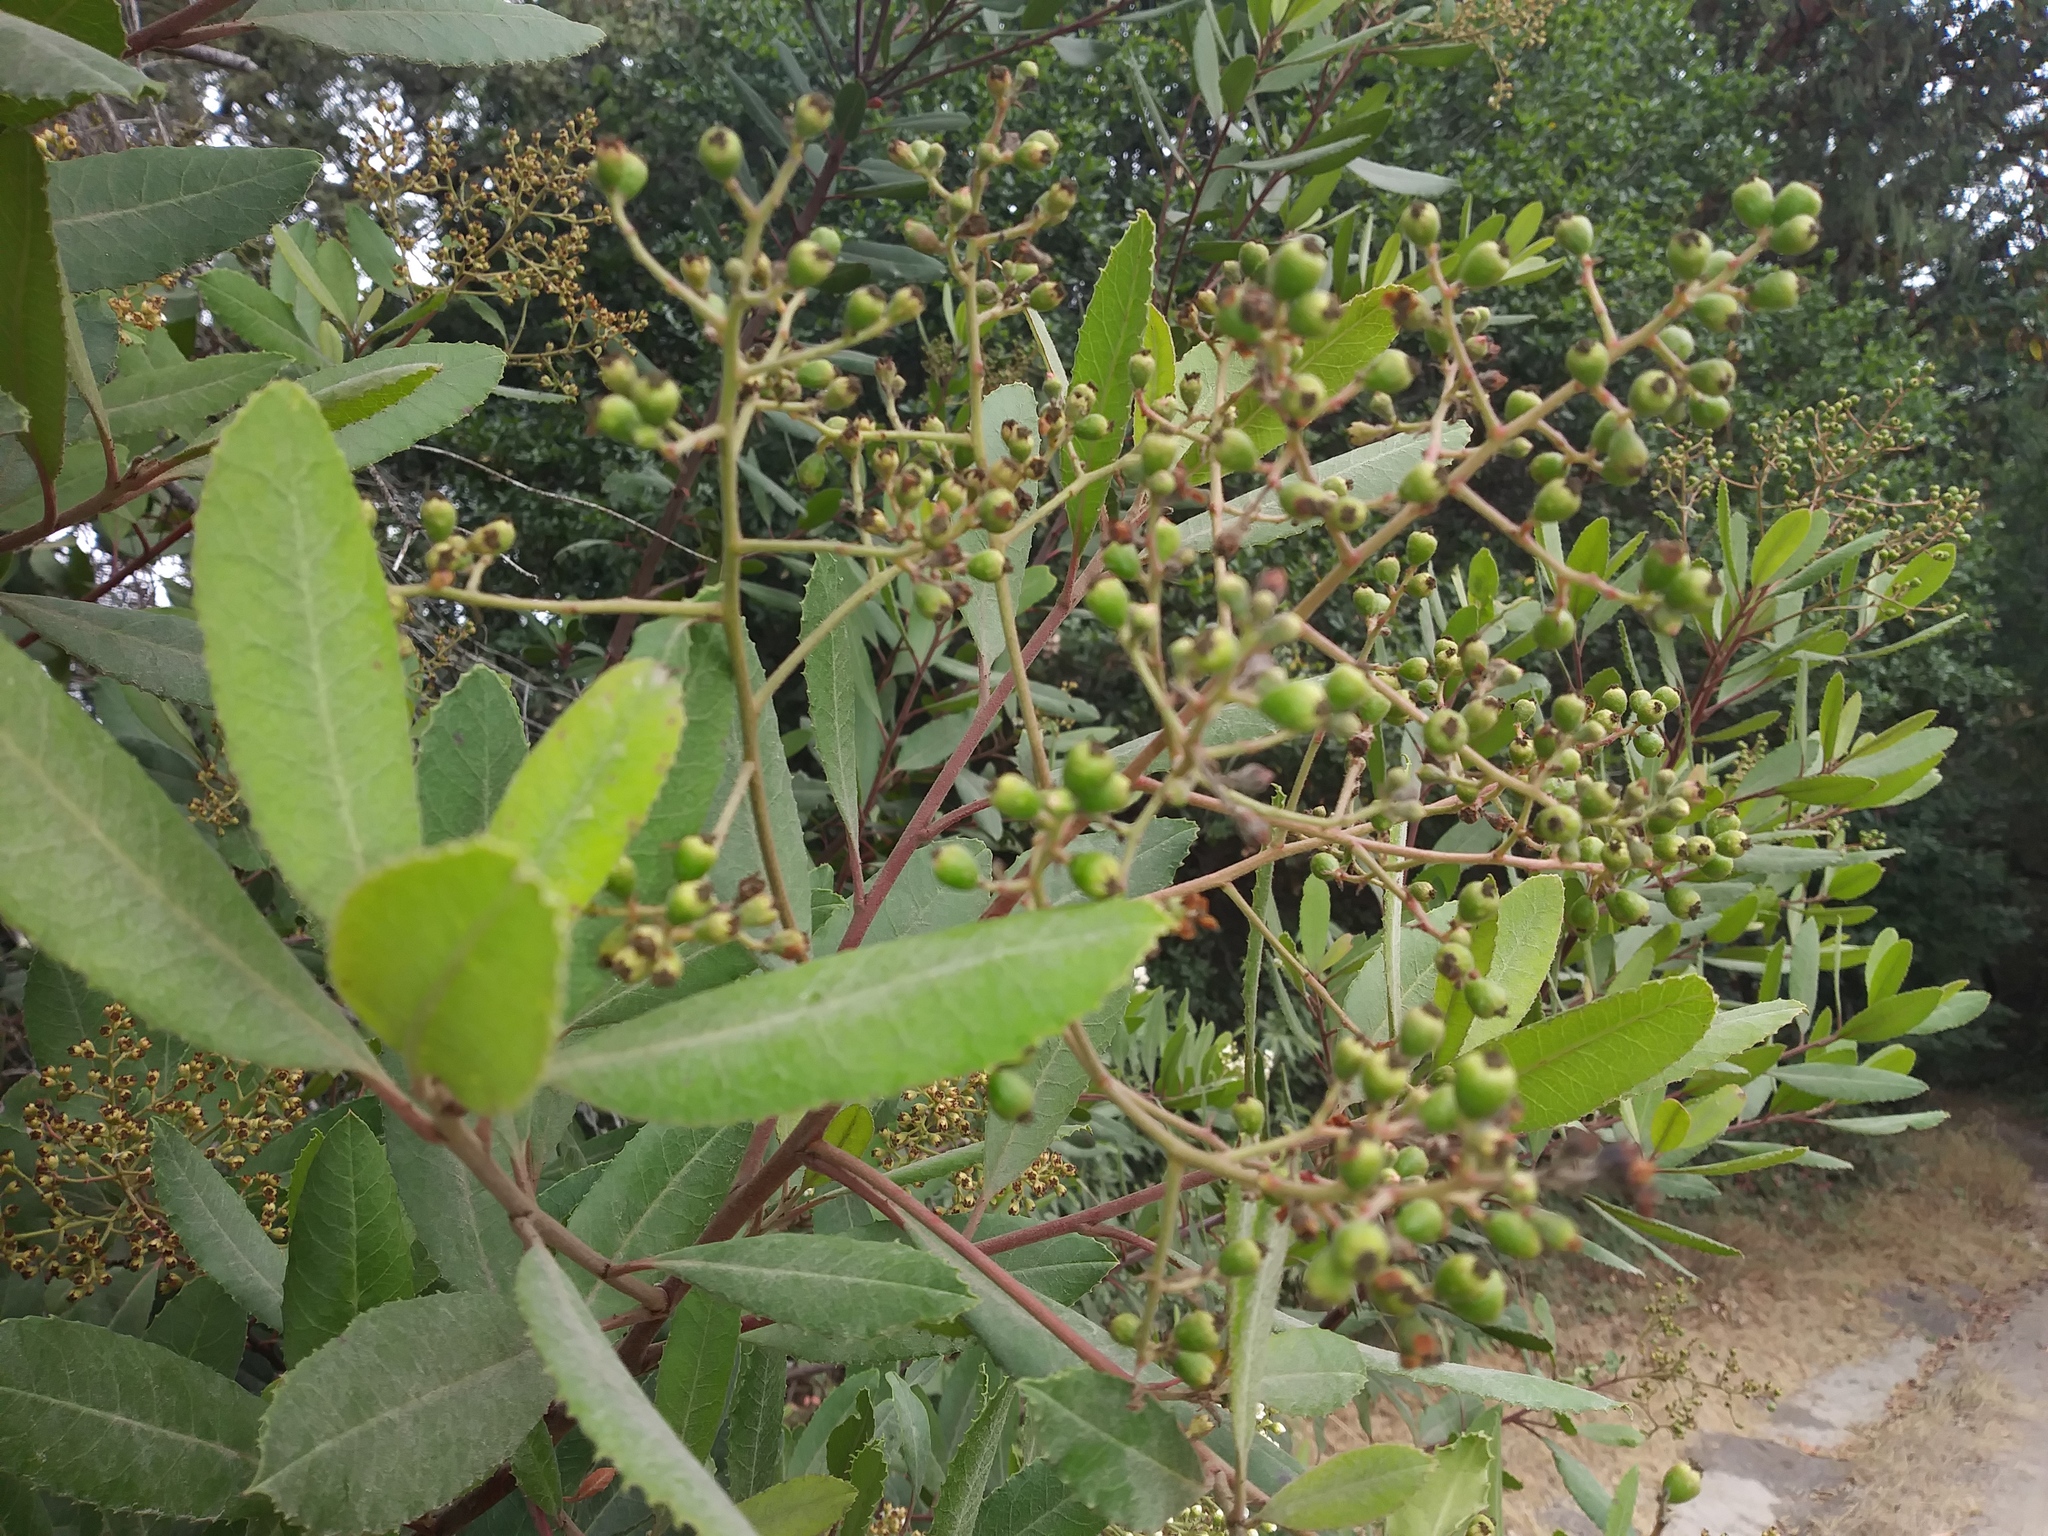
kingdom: Plantae
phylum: Tracheophyta
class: Magnoliopsida
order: Rosales
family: Rosaceae
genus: Heteromeles
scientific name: Heteromeles arbutifolia
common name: California-holly
